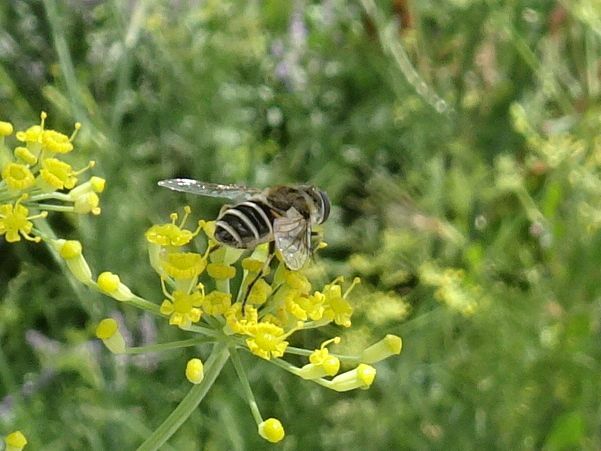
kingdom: Animalia
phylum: Arthropoda
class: Insecta
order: Diptera
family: Syrphidae
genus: Eristalis
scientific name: Eristalis arbustorum
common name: Hover fly
